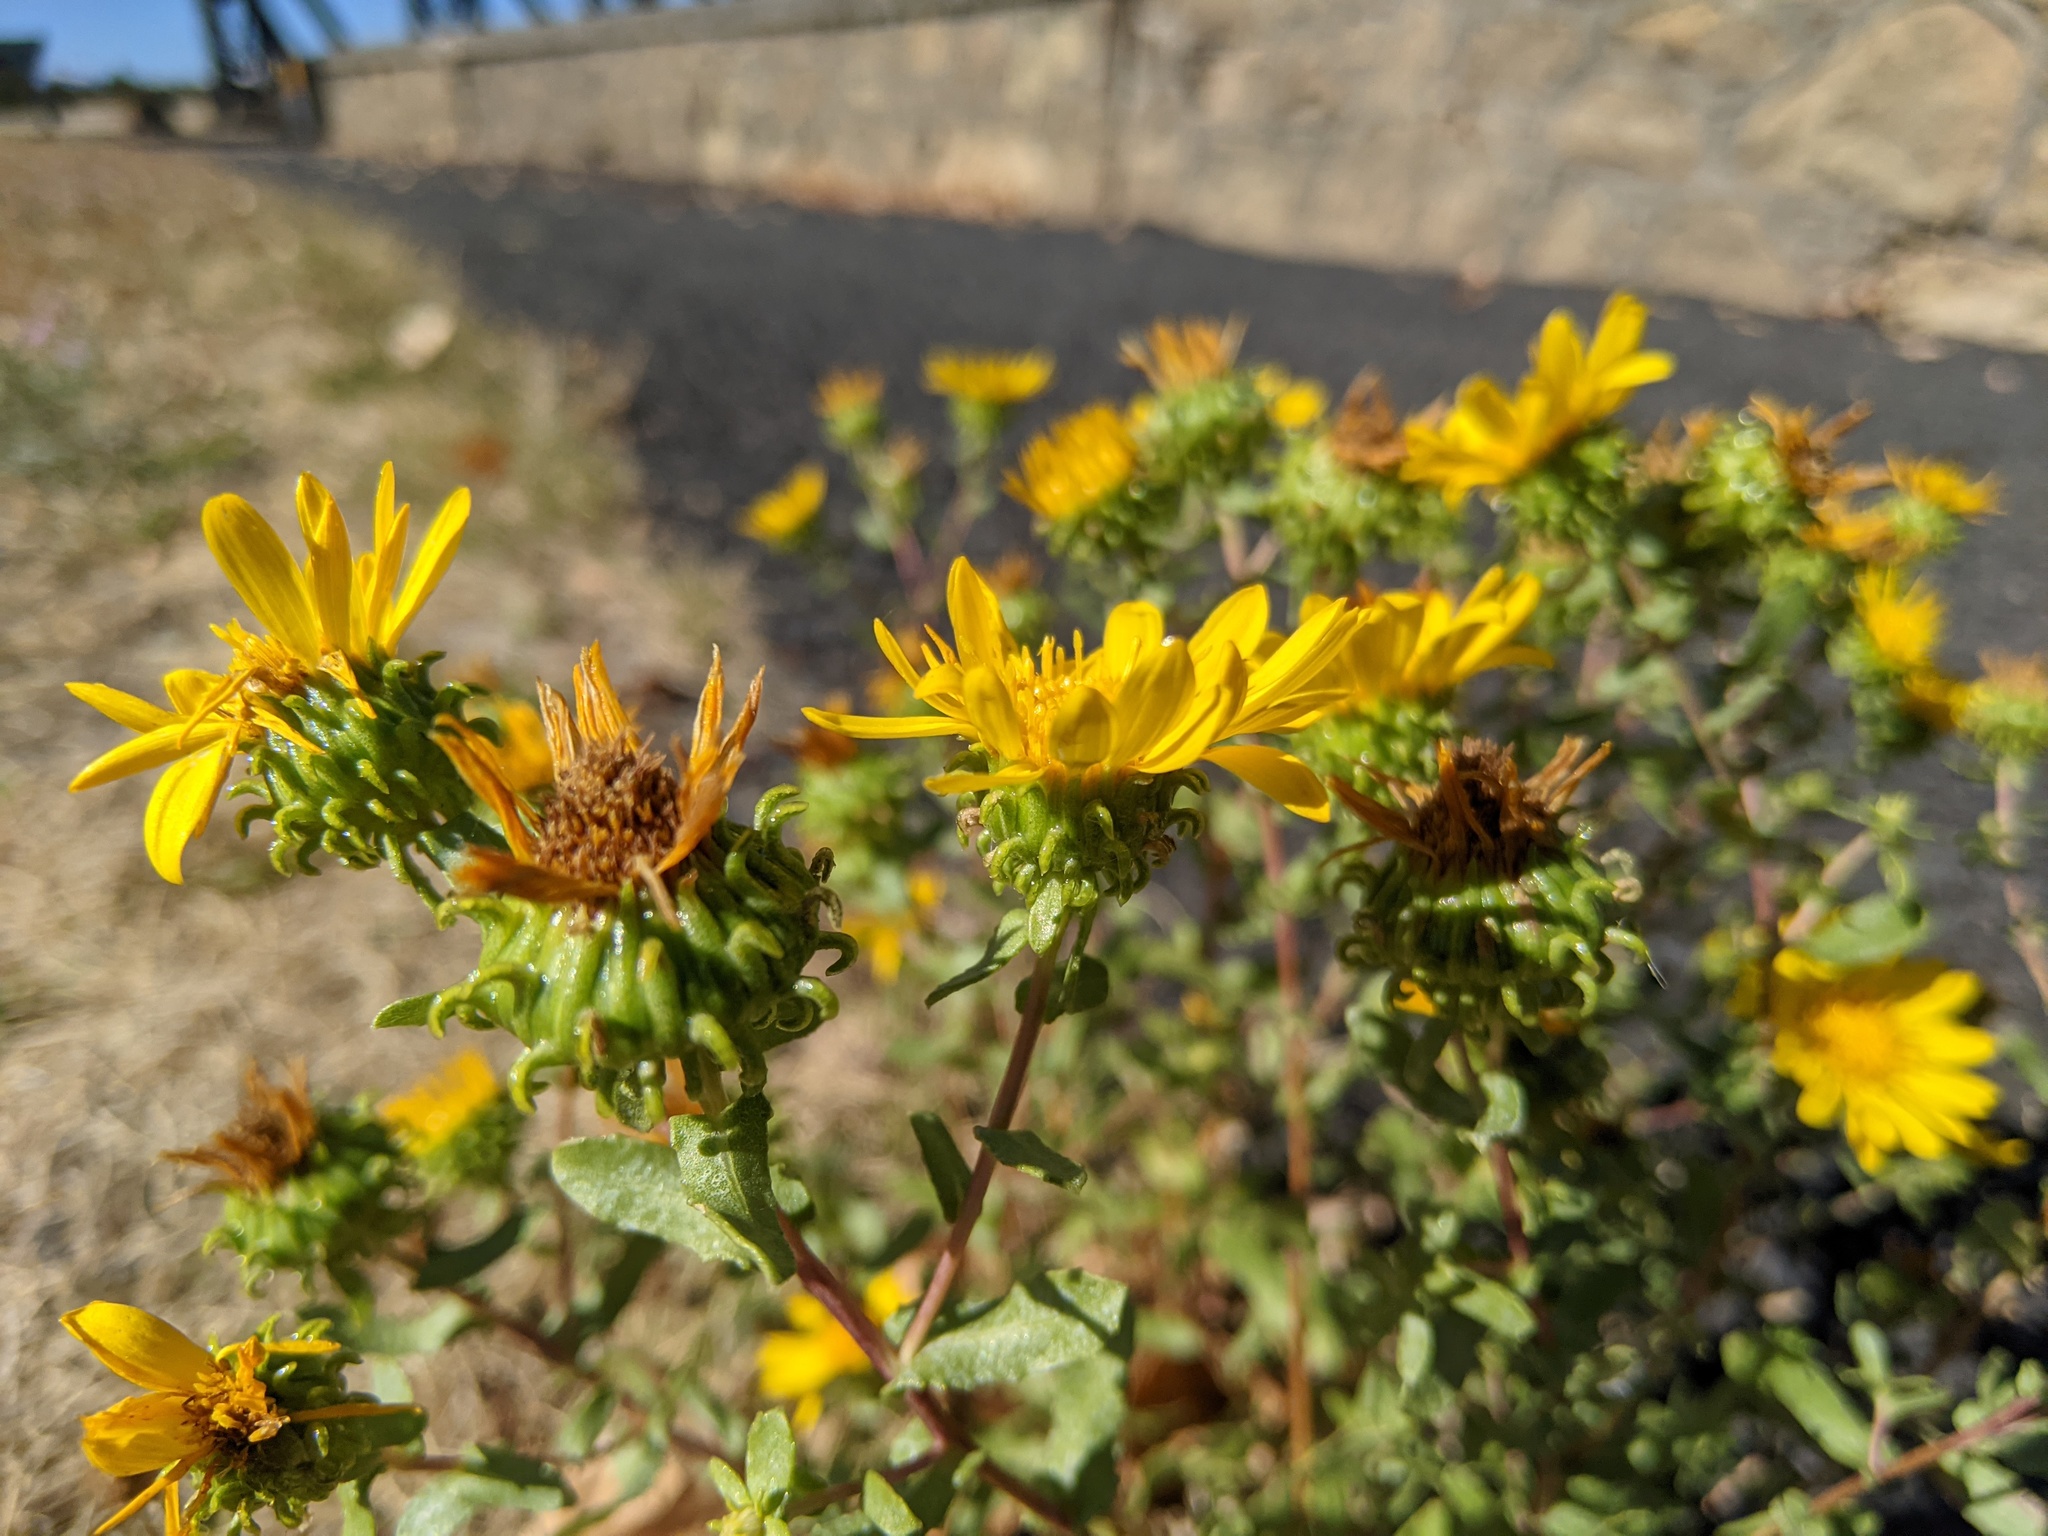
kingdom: Plantae
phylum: Tracheophyta
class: Magnoliopsida
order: Asterales
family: Asteraceae
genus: Grindelia
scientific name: Grindelia squarrosa
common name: Curly-cup gumweed
